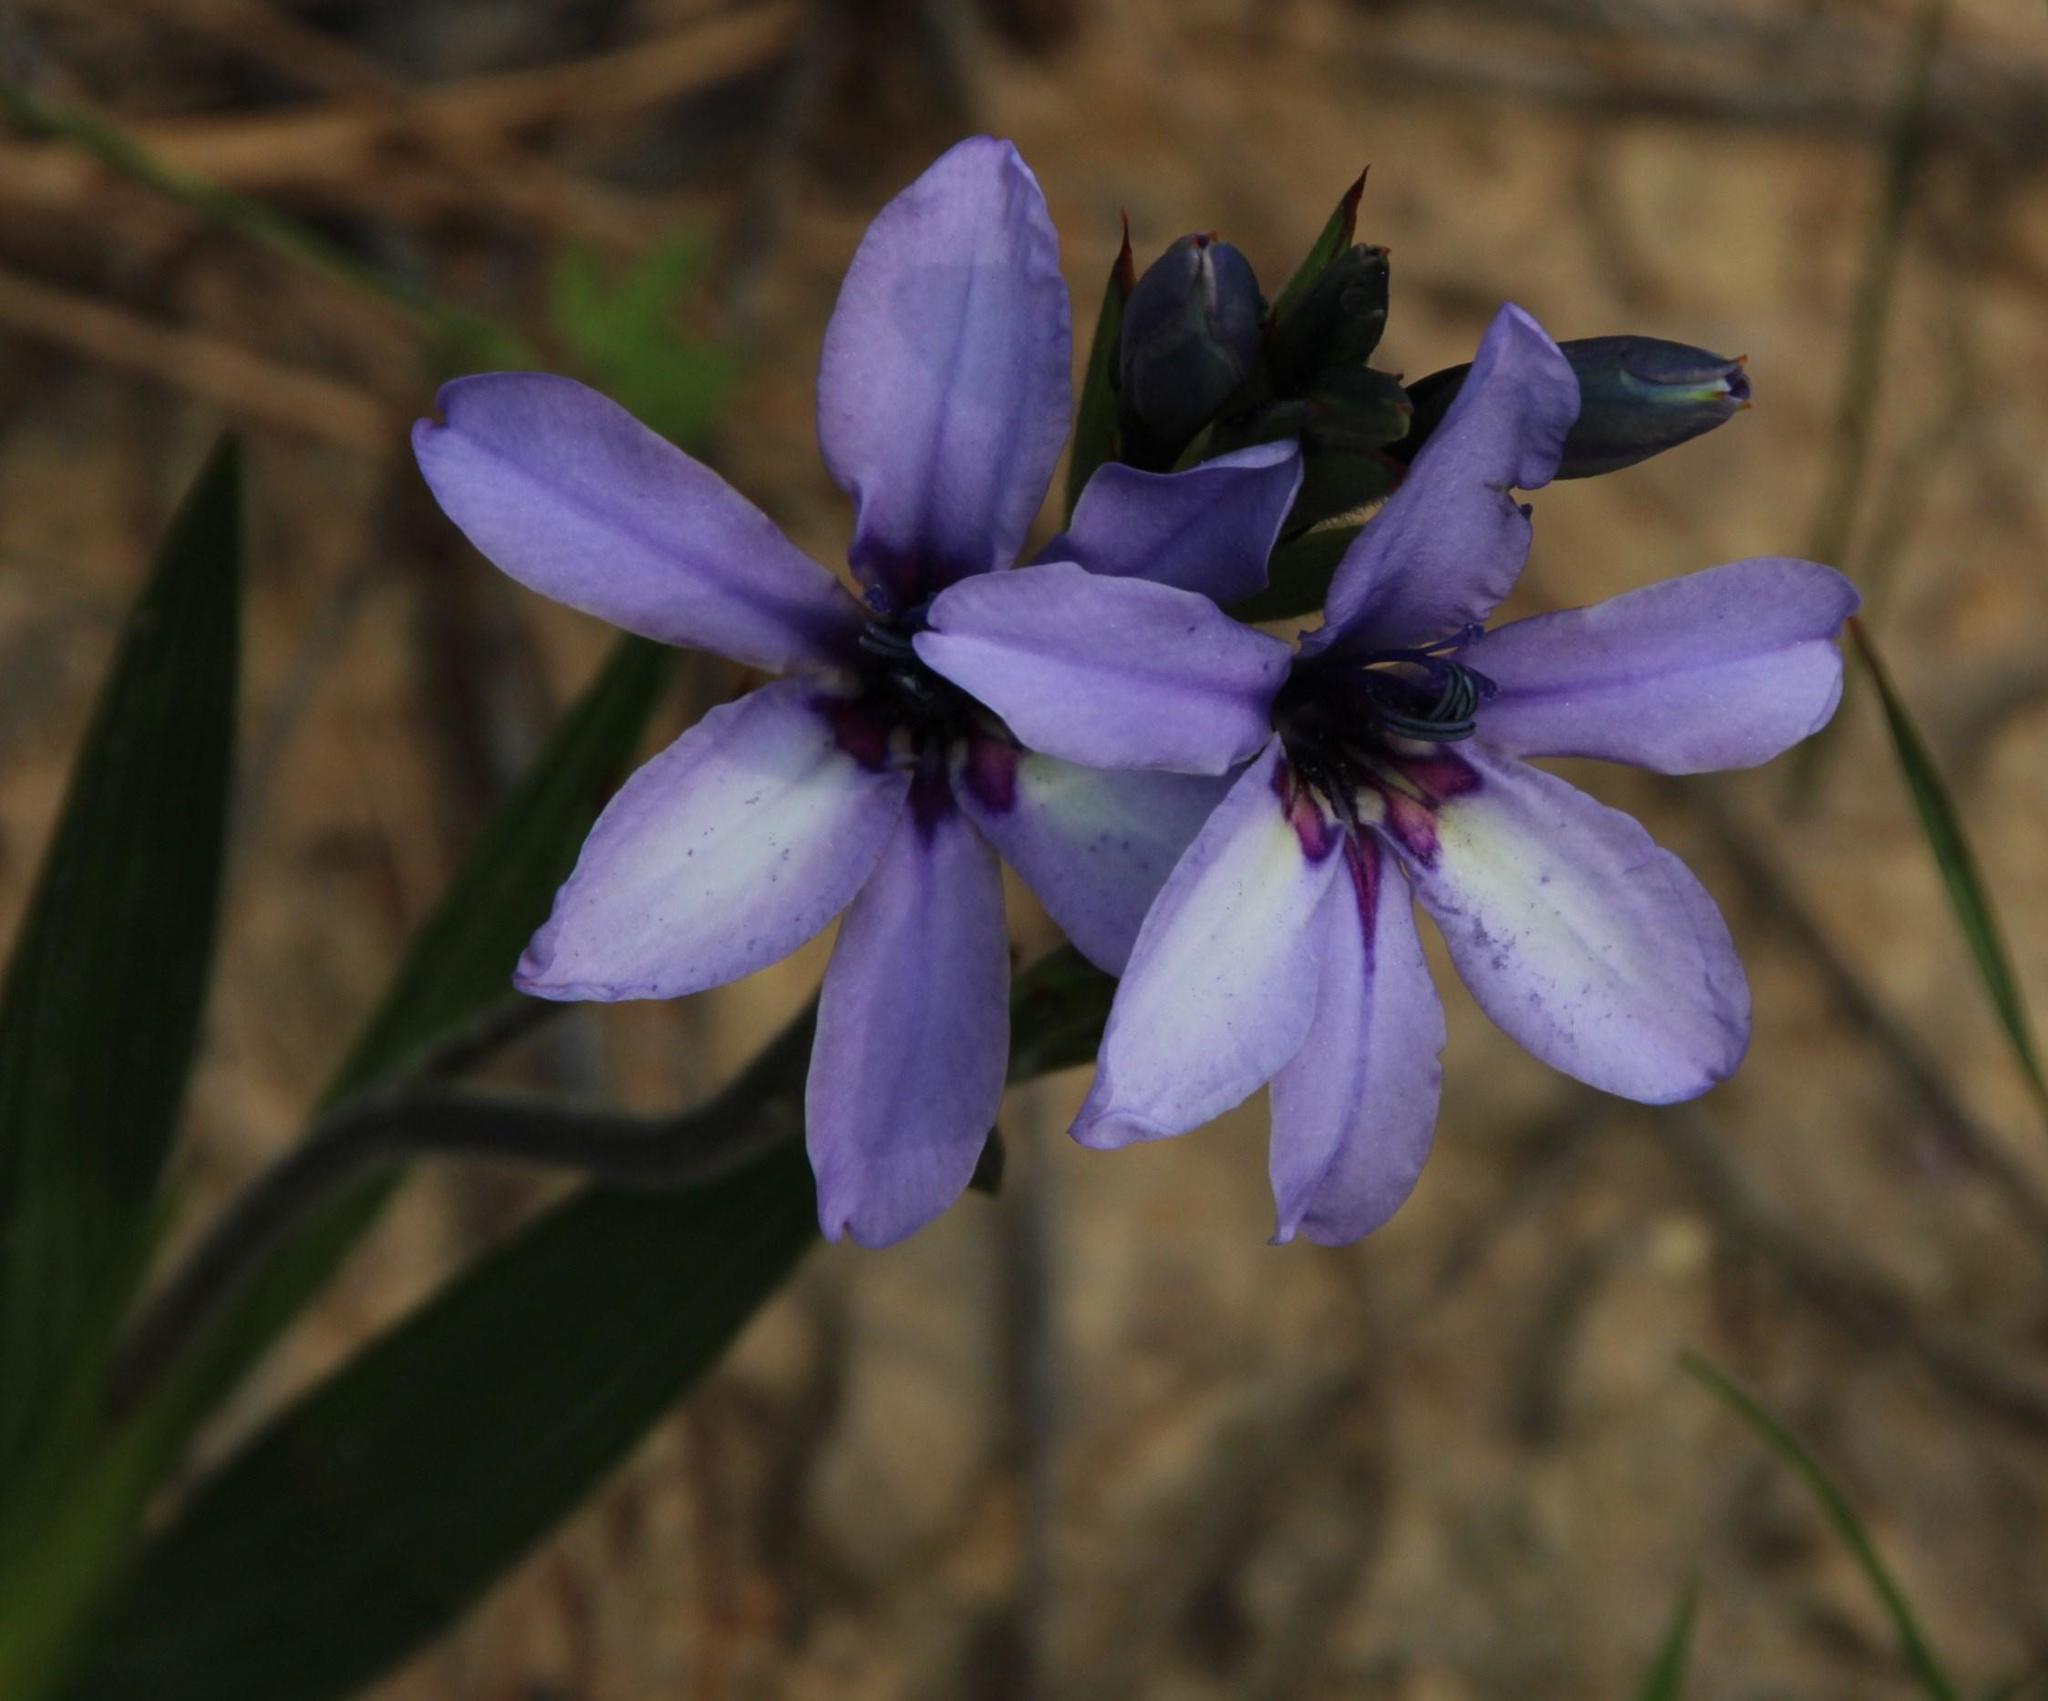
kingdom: Plantae
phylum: Tracheophyta
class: Liliopsida
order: Asparagales
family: Iridaceae
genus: Babiana
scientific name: Babiana fragrans
